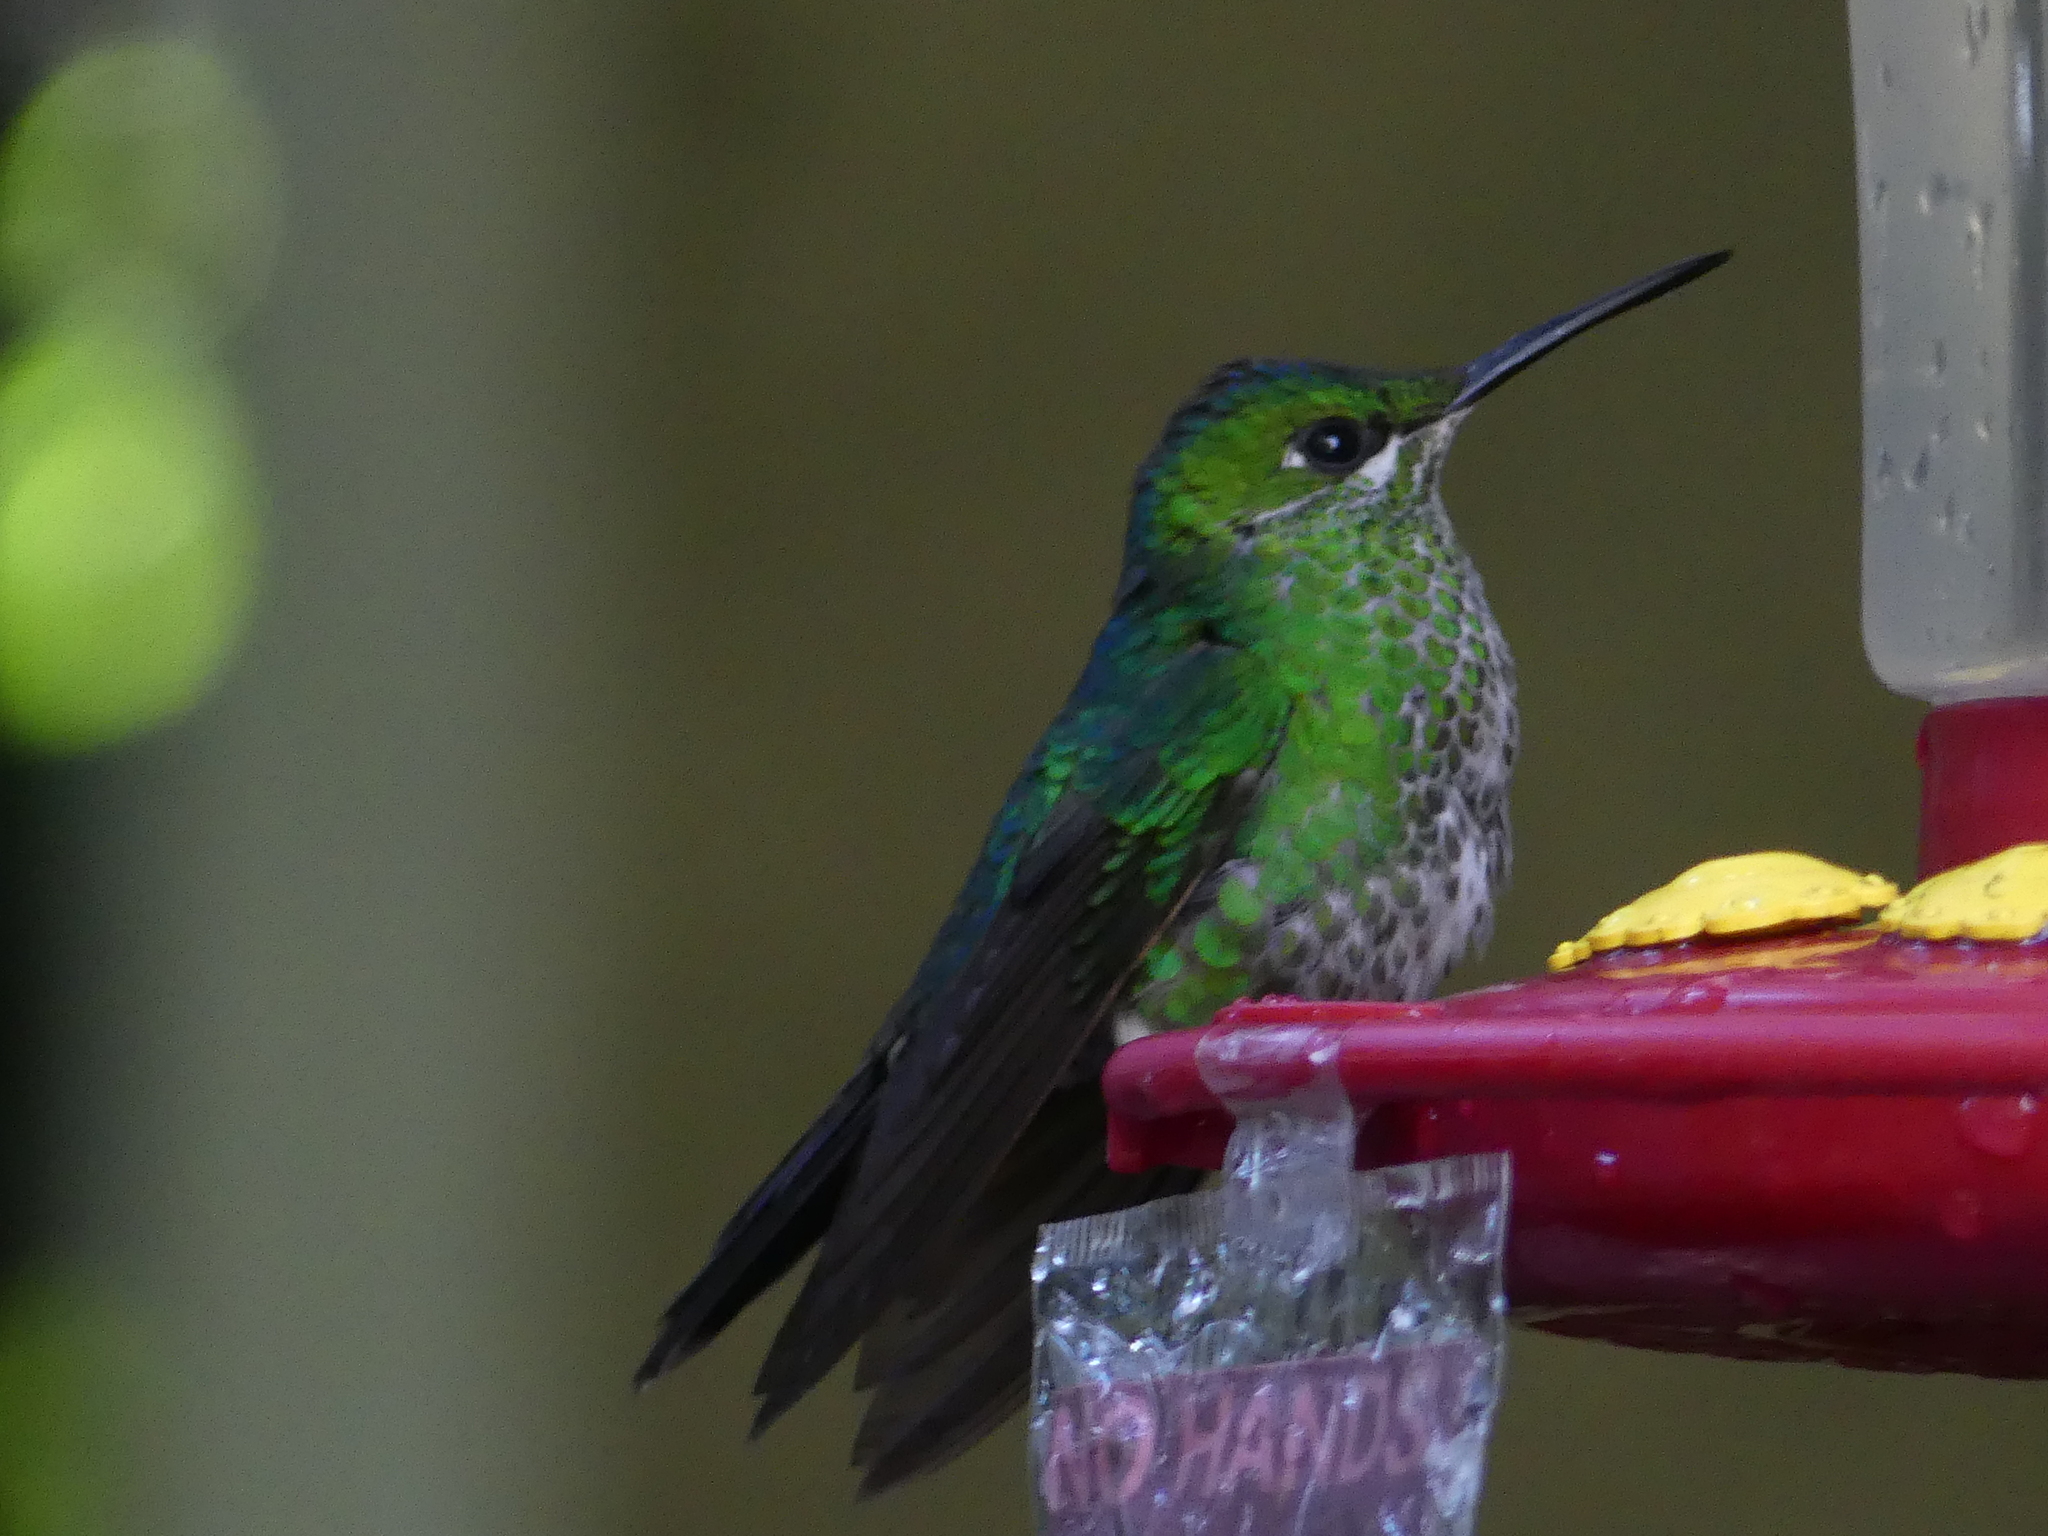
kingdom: Animalia
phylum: Chordata
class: Aves
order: Apodiformes
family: Trochilidae
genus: Heliodoxa
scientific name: Heliodoxa jacula
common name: Green-crowned brilliant
